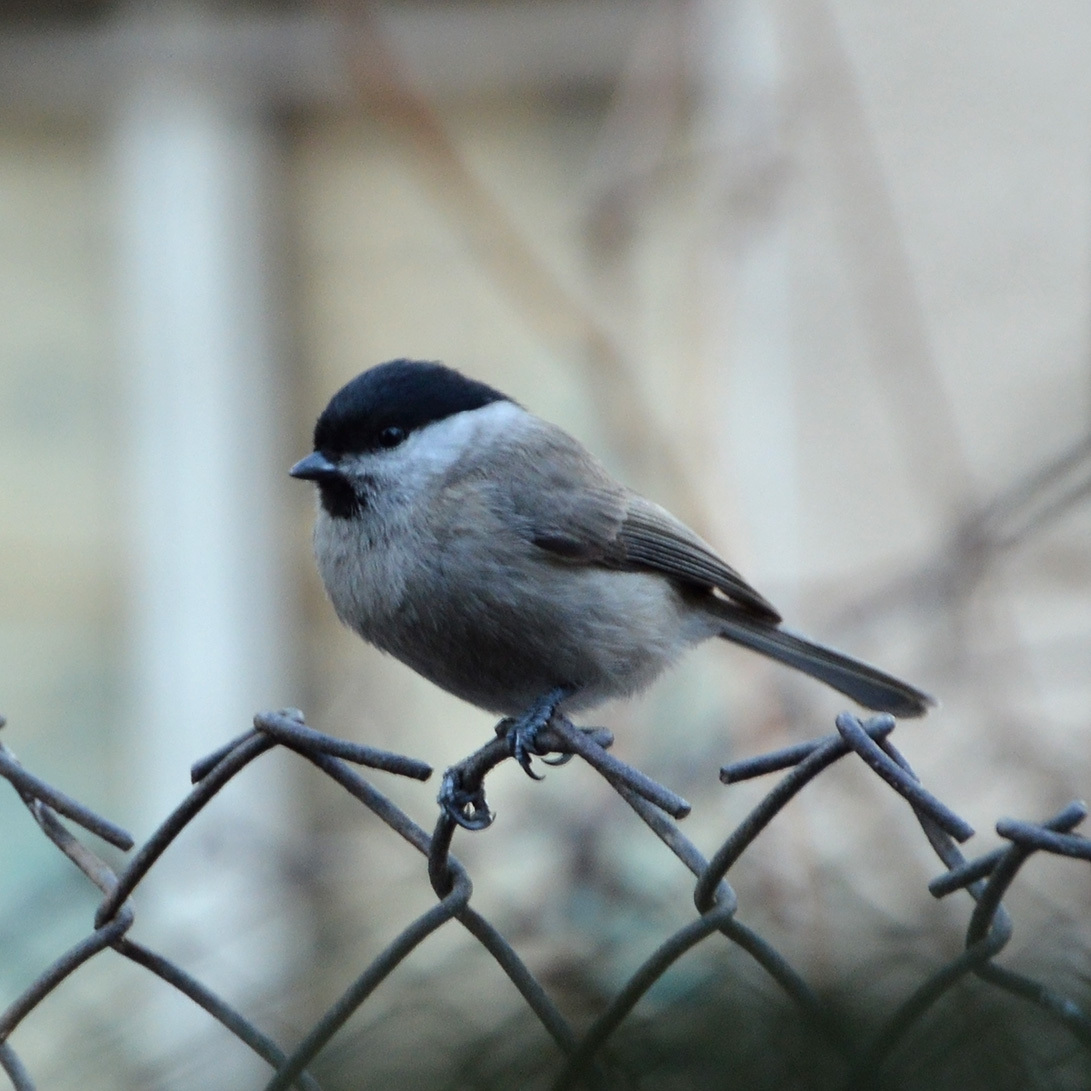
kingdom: Animalia
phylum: Chordata
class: Aves
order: Passeriformes
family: Paridae
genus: Poecile
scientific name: Poecile palustris
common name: Marsh tit
